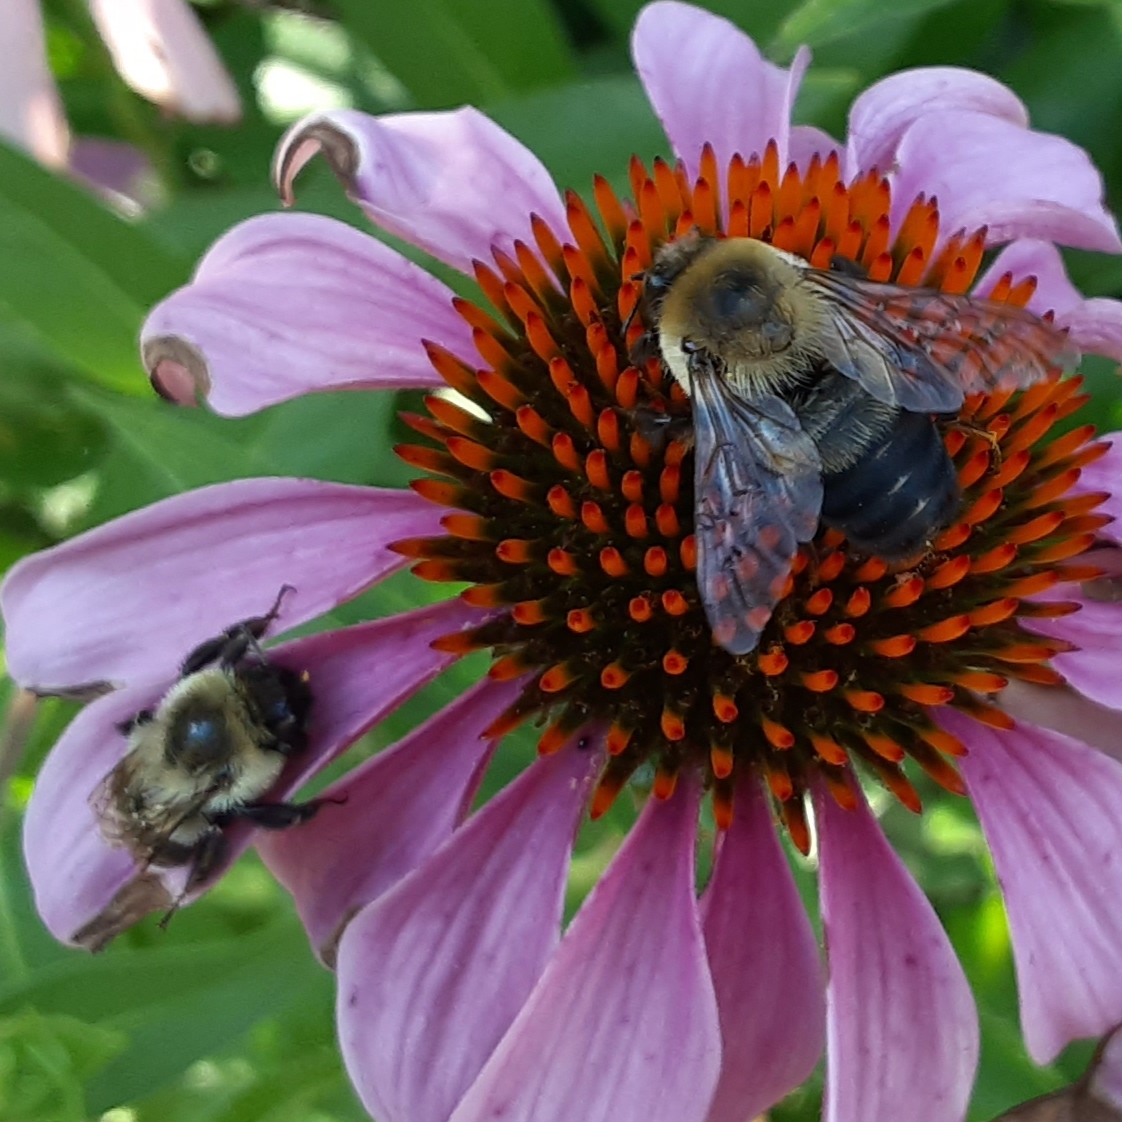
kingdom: Animalia
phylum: Arthropoda
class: Insecta
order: Hymenoptera
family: Apidae
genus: Bombus
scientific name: Bombus griseocollis
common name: Brown-belted bumble bee
